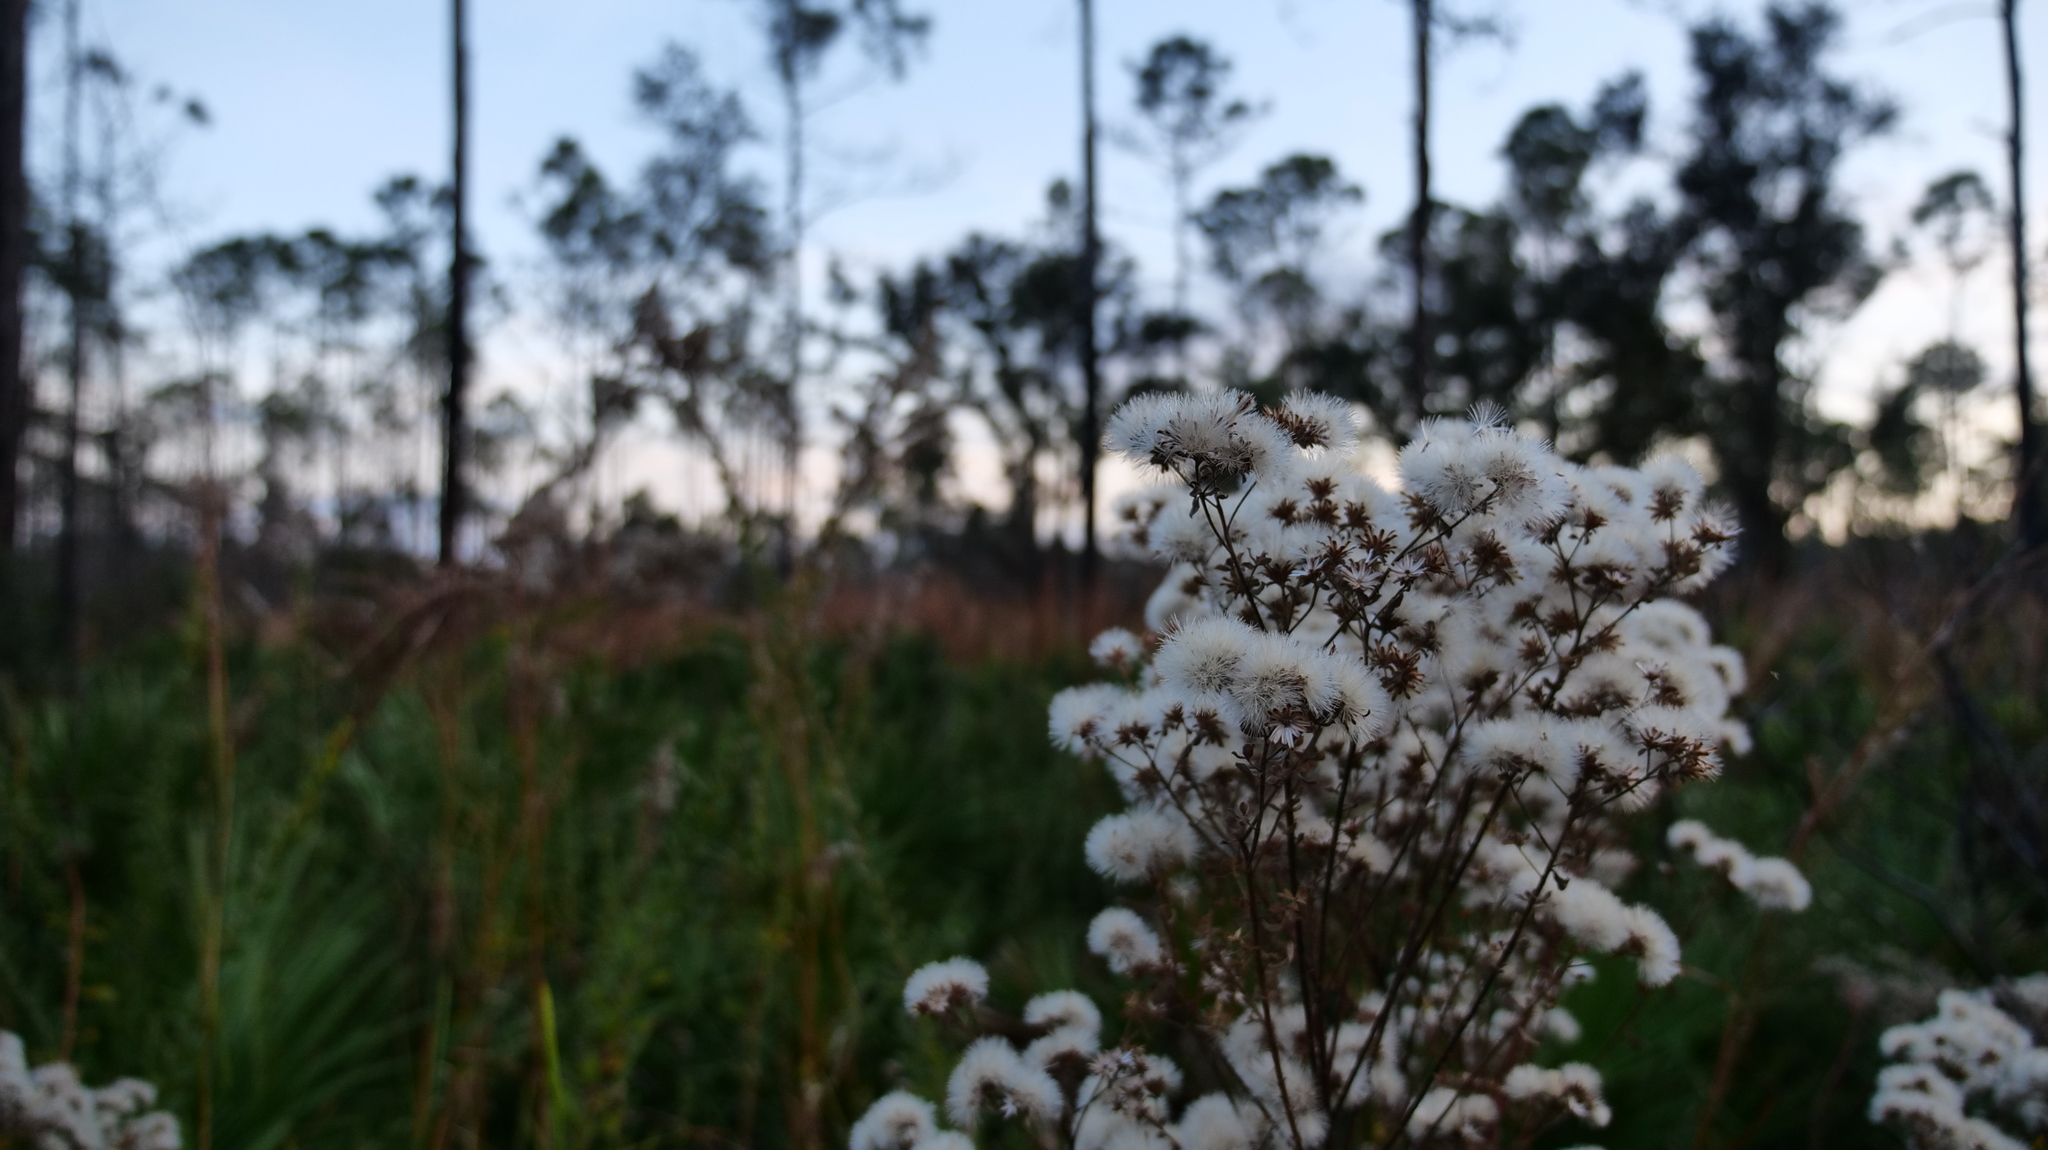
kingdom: Plantae
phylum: Tracheophyta
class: Magnoliopsida
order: Asterales
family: Asteraceae
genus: Carphephorus
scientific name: Carphephorus odoratissimus
